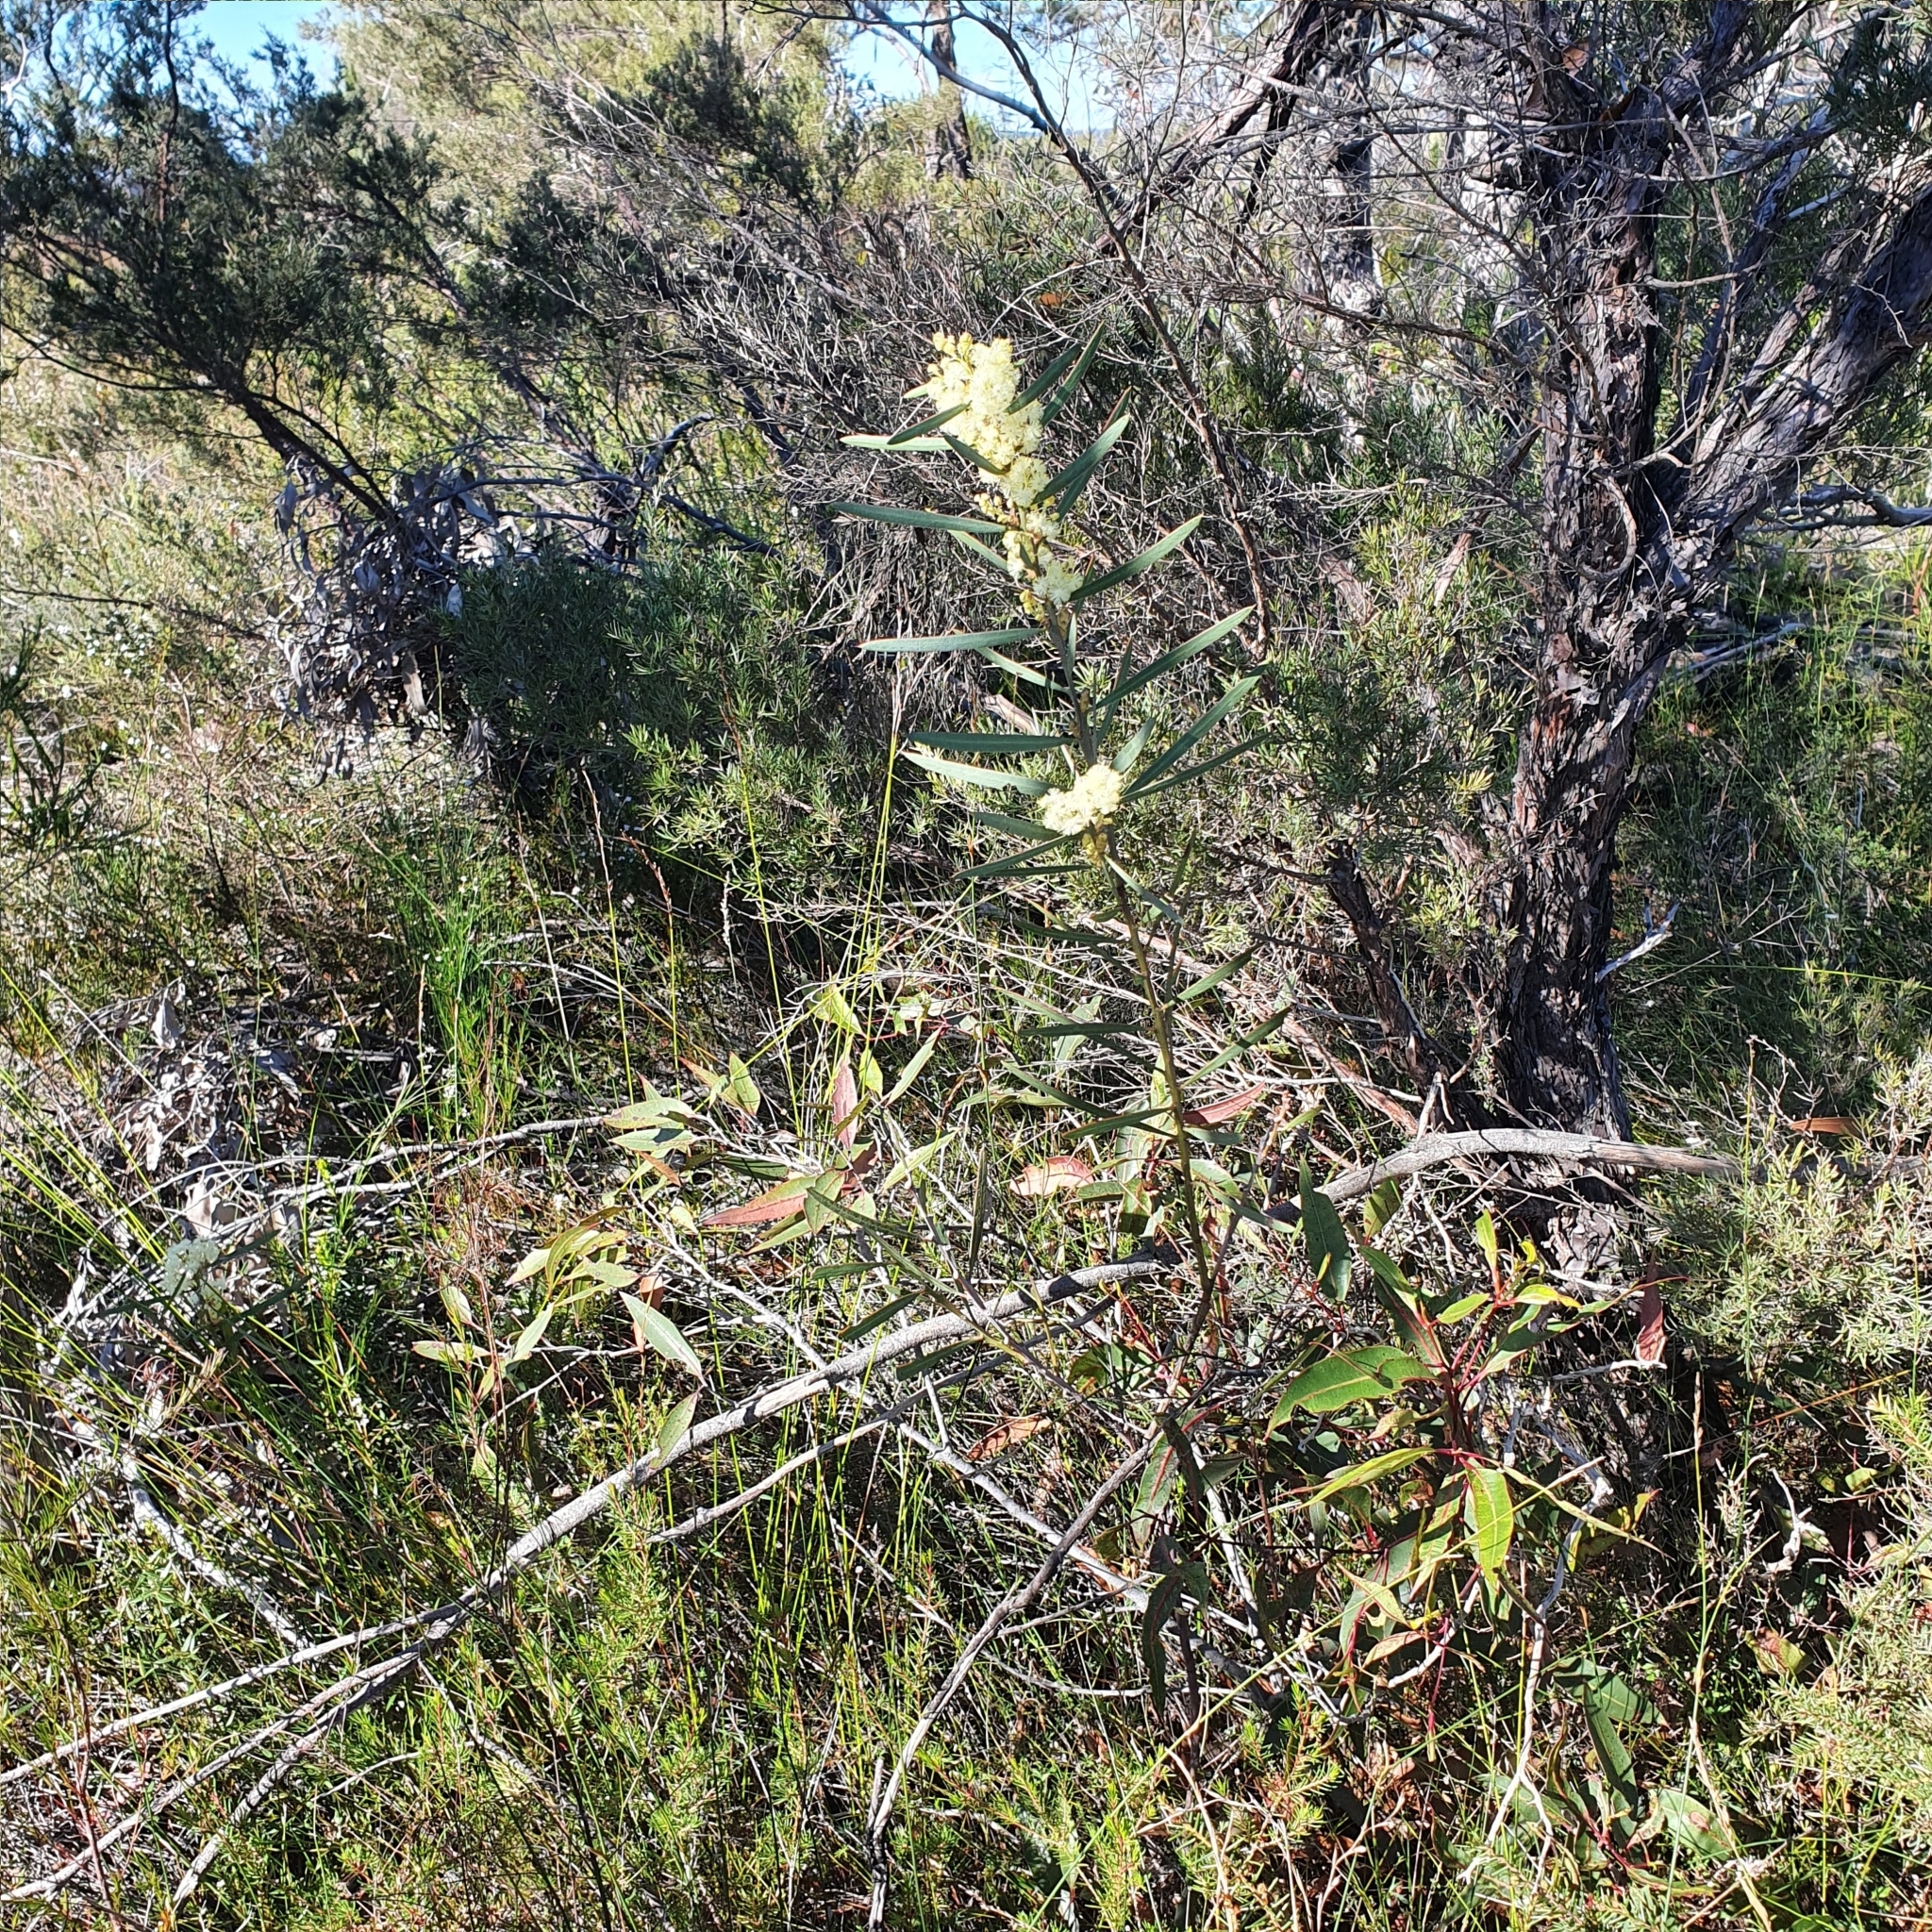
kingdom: Plantae
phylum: Tracheophyta
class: Magnoliopsida
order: Fabales
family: Fabaceae
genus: Acacia
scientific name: Acacia suaveolens
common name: Sweet acacia
